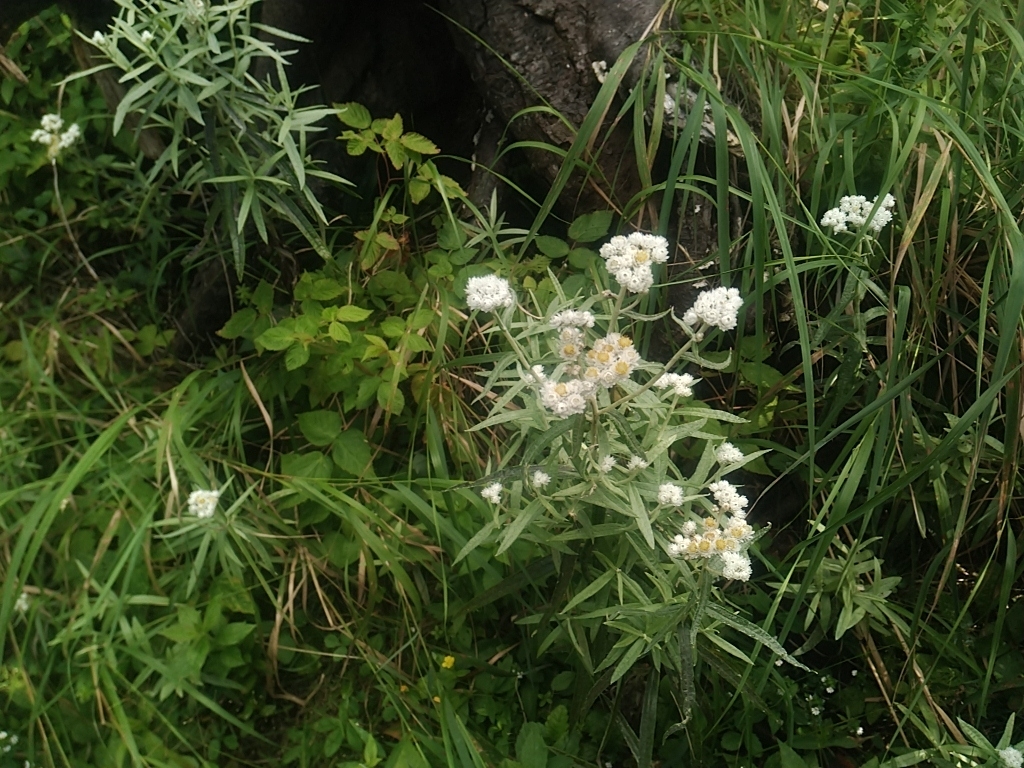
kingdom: Plantae
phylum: Tracheophyta
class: Magnoliopsida
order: Asterales
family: Asteraceae
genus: Anaphalis
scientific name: Anaphalis margaritacea
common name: Pearly everlasting
